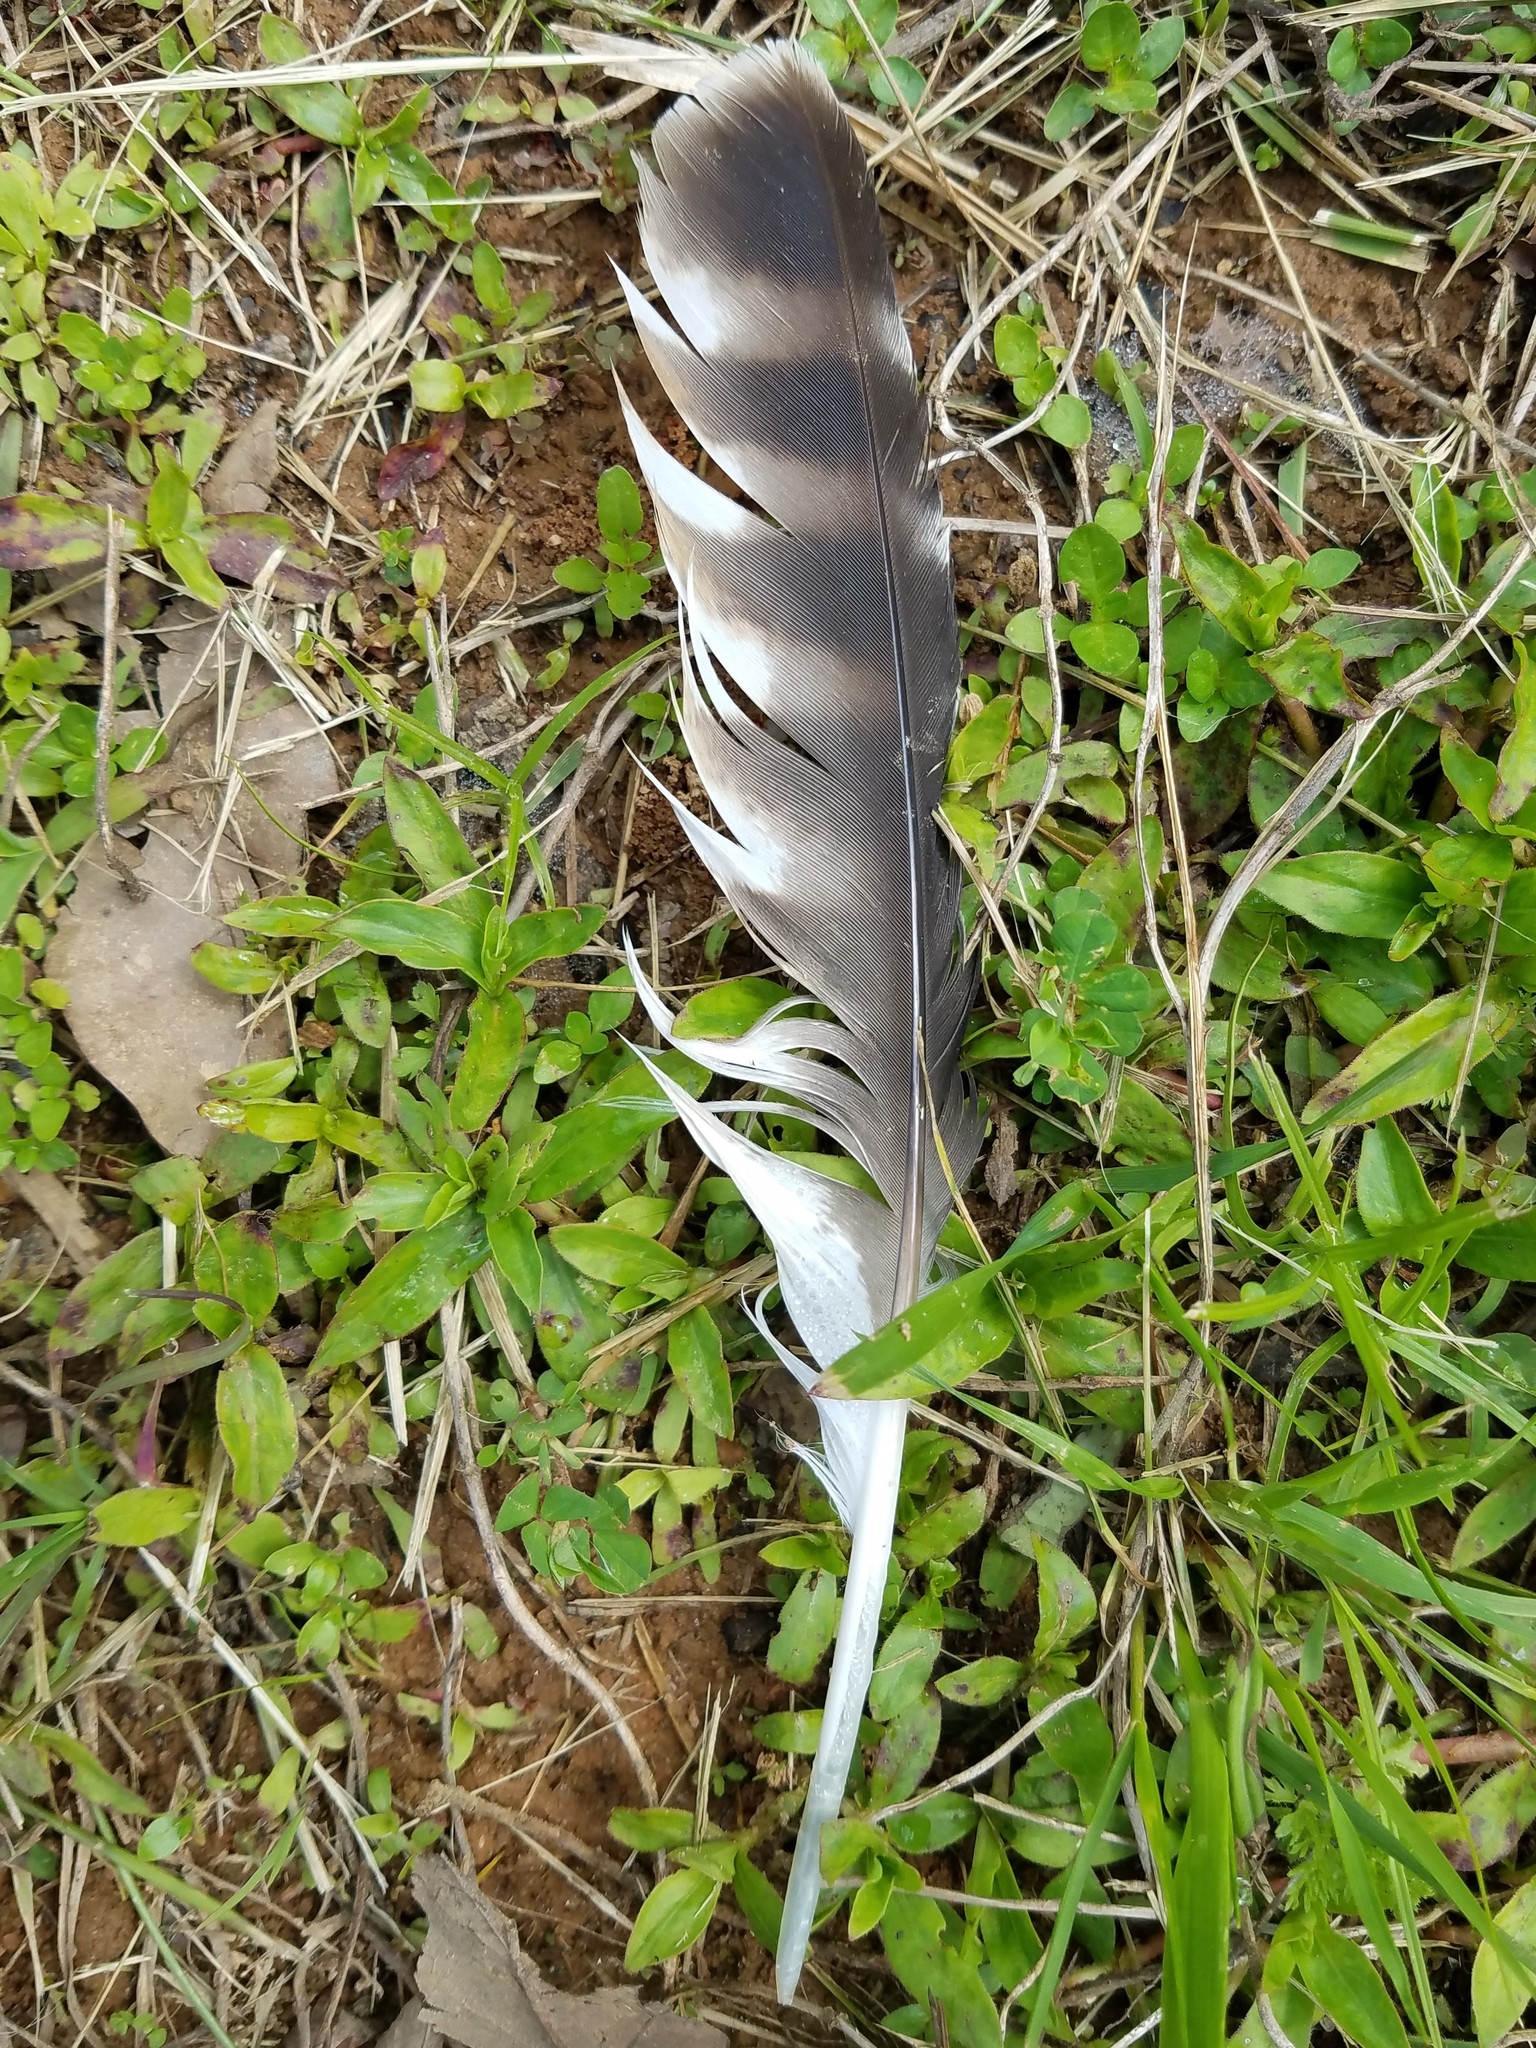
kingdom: Animalia
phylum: Chordata
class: Aves
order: Accipitriformes
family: Accipitridae
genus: Buteo
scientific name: Buteo lineatus
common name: Red-shouldered hawk
